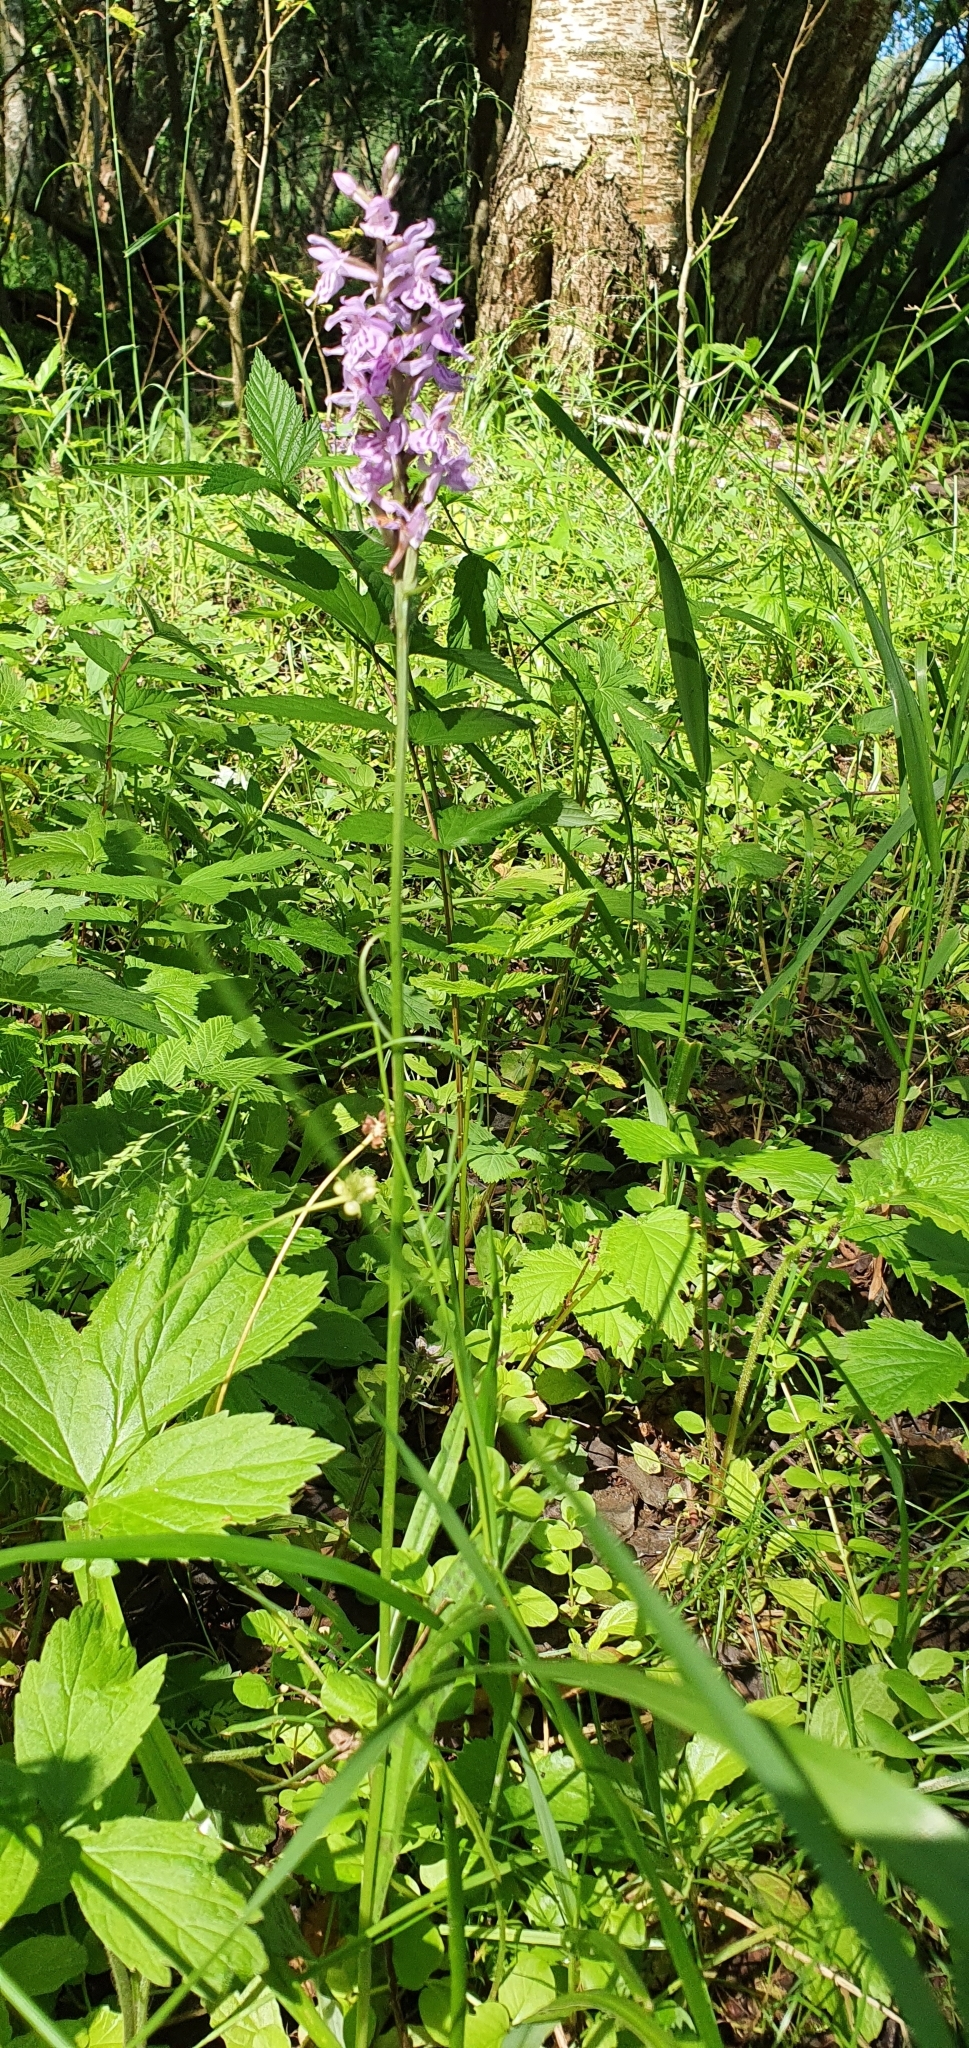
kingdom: Plantae
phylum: Tracheophyta
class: Liliopsida
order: Asparagales
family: Orchidaceae
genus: Dactylorhiza
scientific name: Dactylorhiza maculata
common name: Heath spotted-orchid
